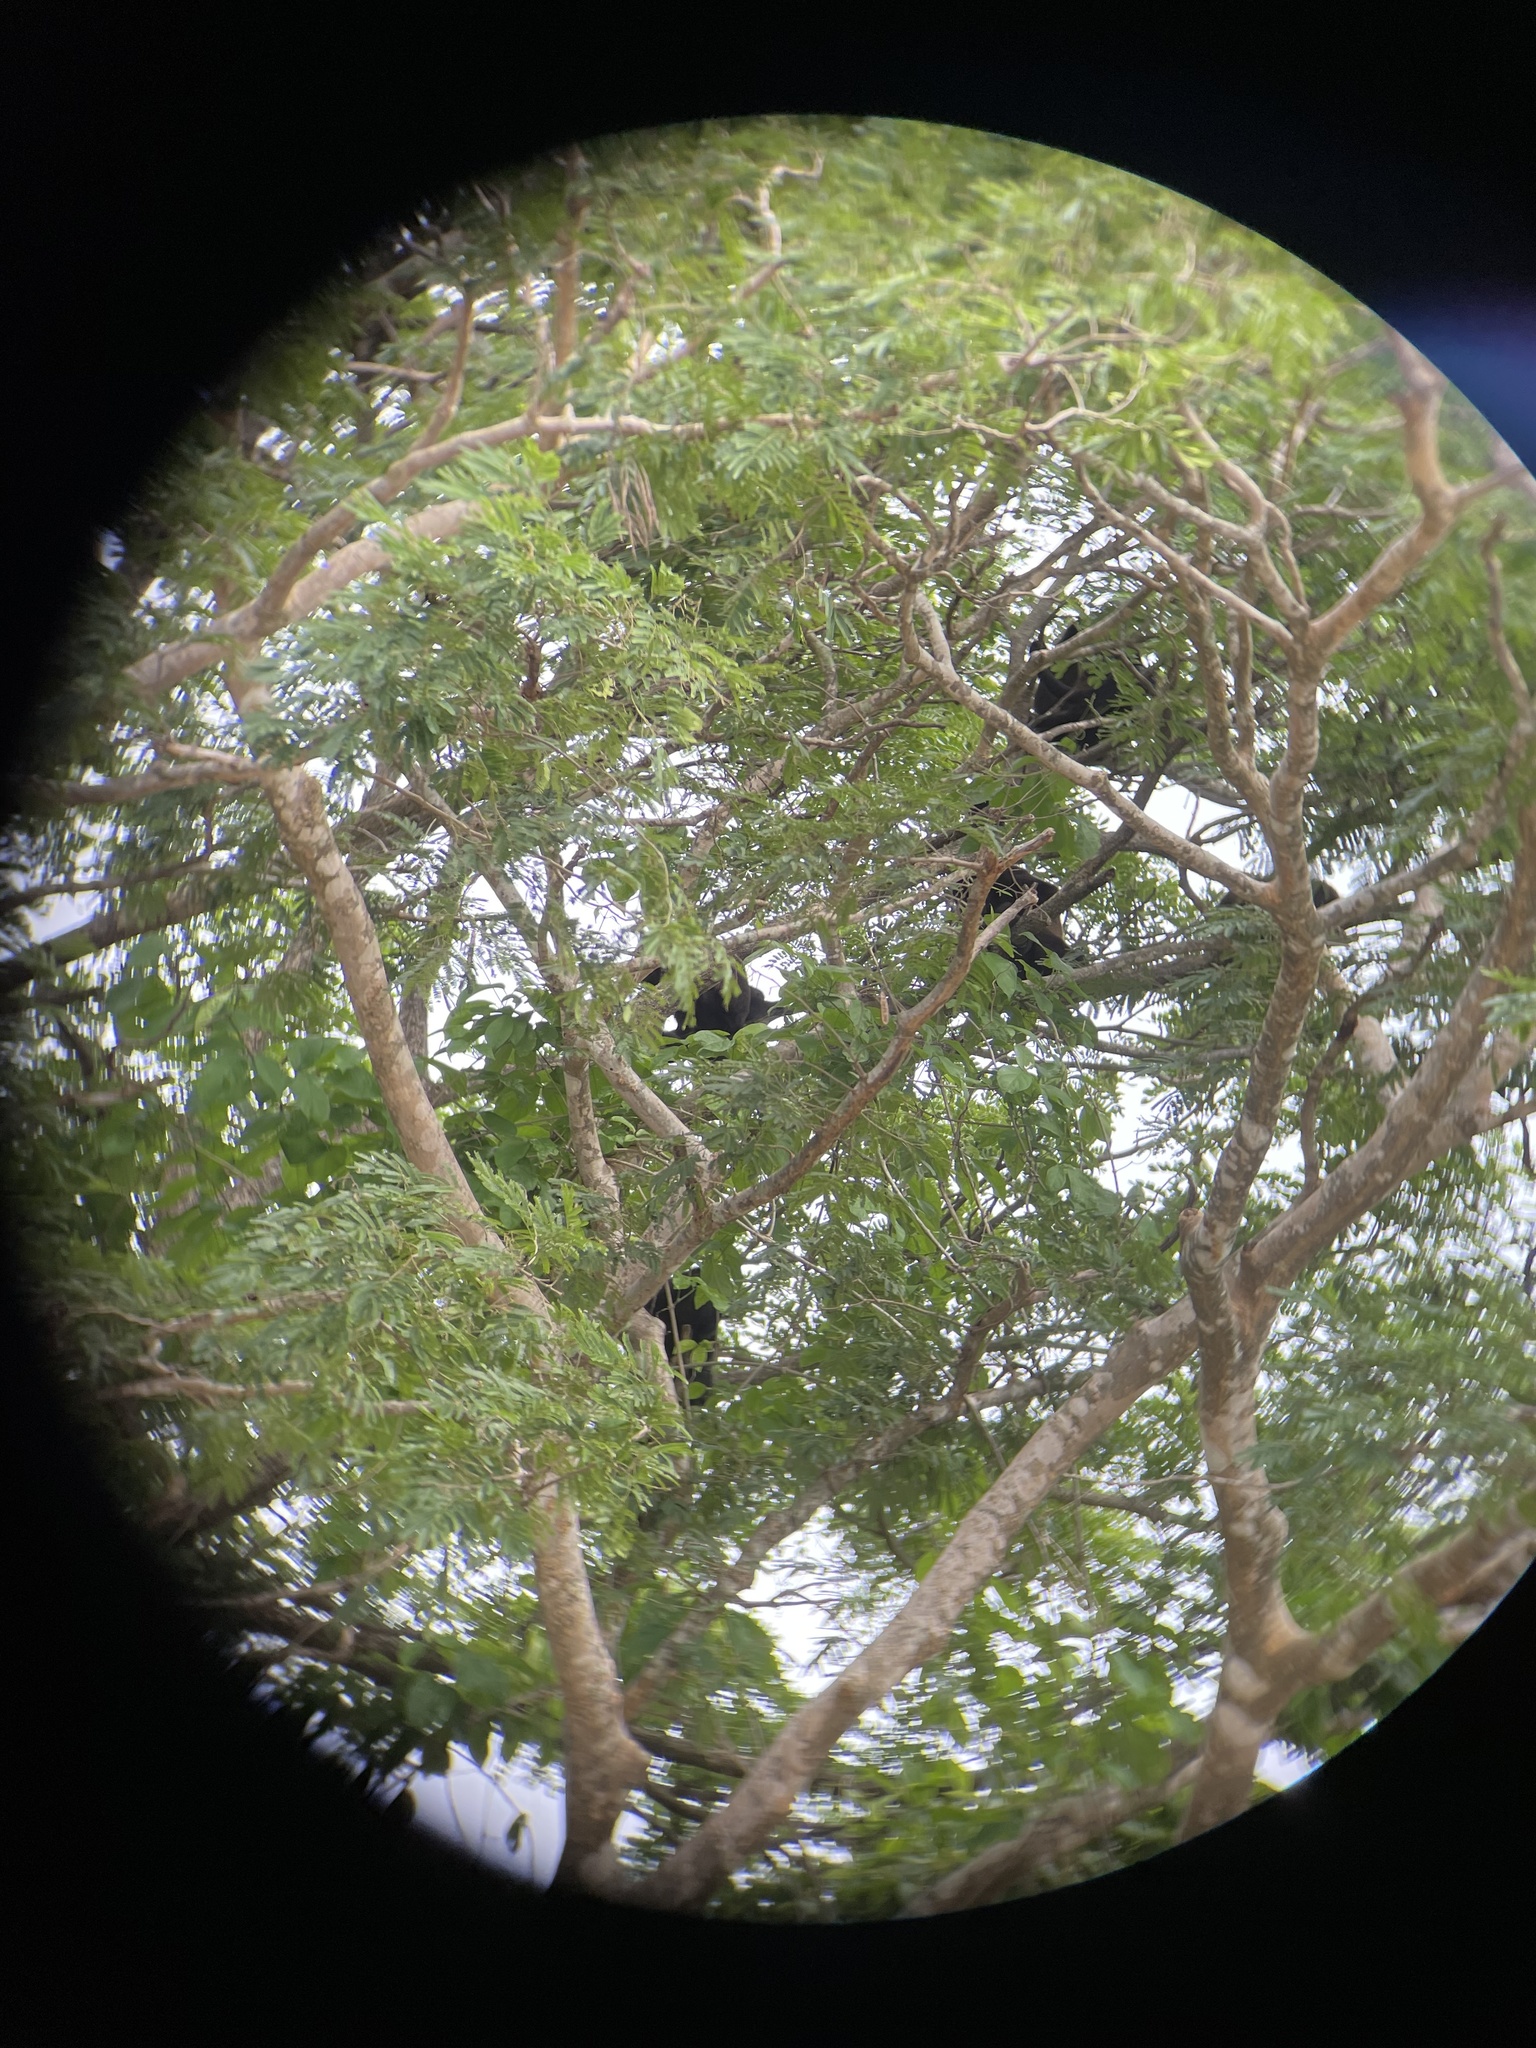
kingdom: Animalia
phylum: Chordata
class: Mammalia
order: Primates
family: Atelidae
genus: Alouatta
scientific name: Alouatta palliata
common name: Mantled howler
